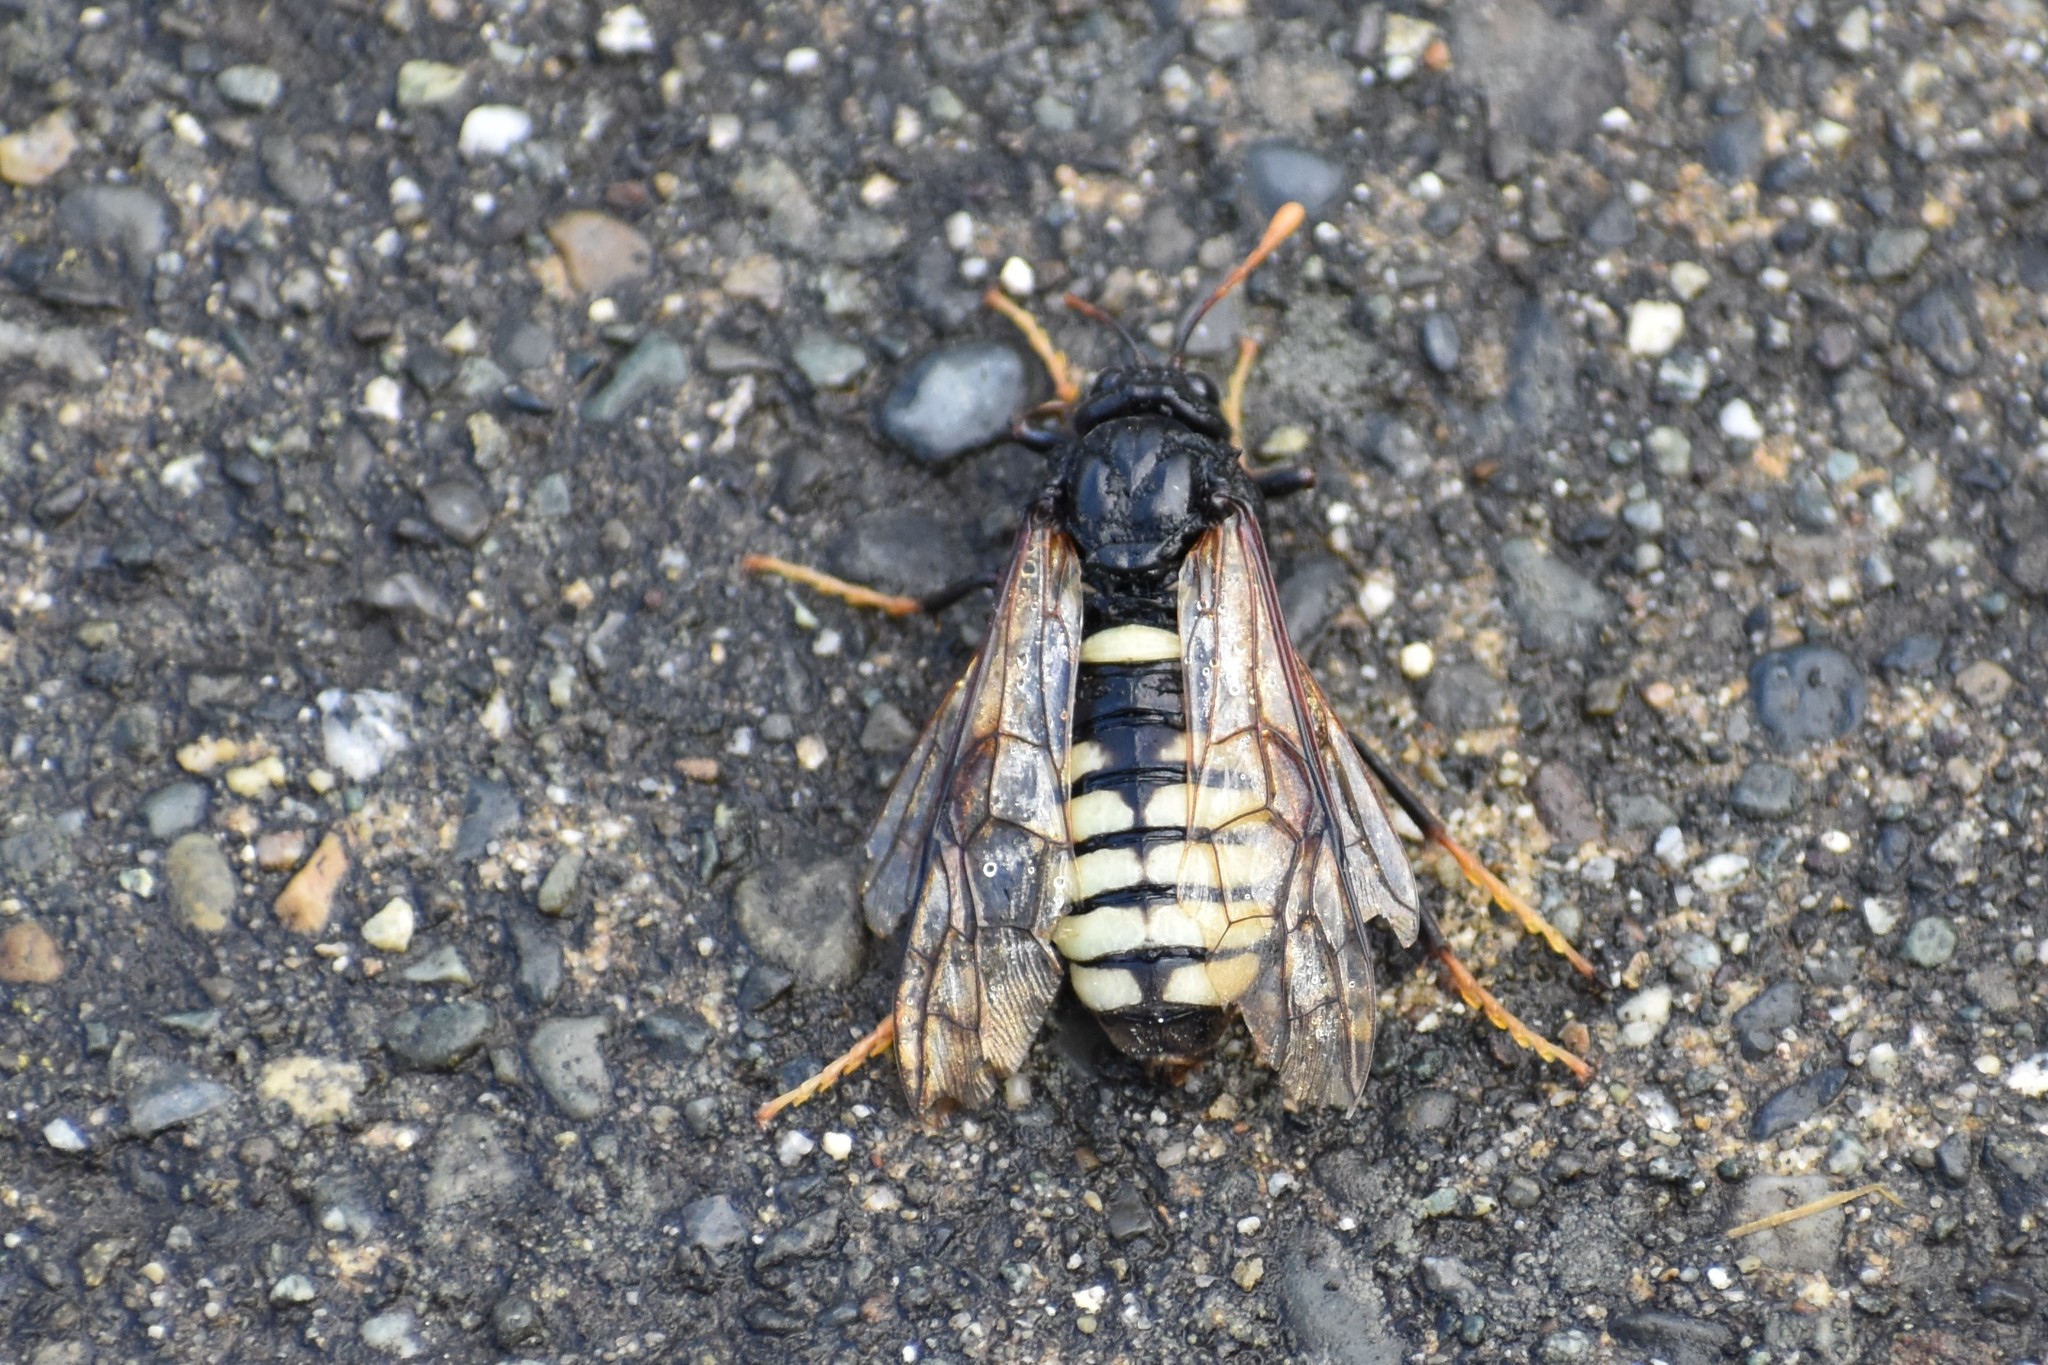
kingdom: Animalia
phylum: Arthropoda
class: Insecta
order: Hymenoptera
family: Cimbicidae
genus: Cimbex
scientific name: Cimbex americana
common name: Elm sawfly
